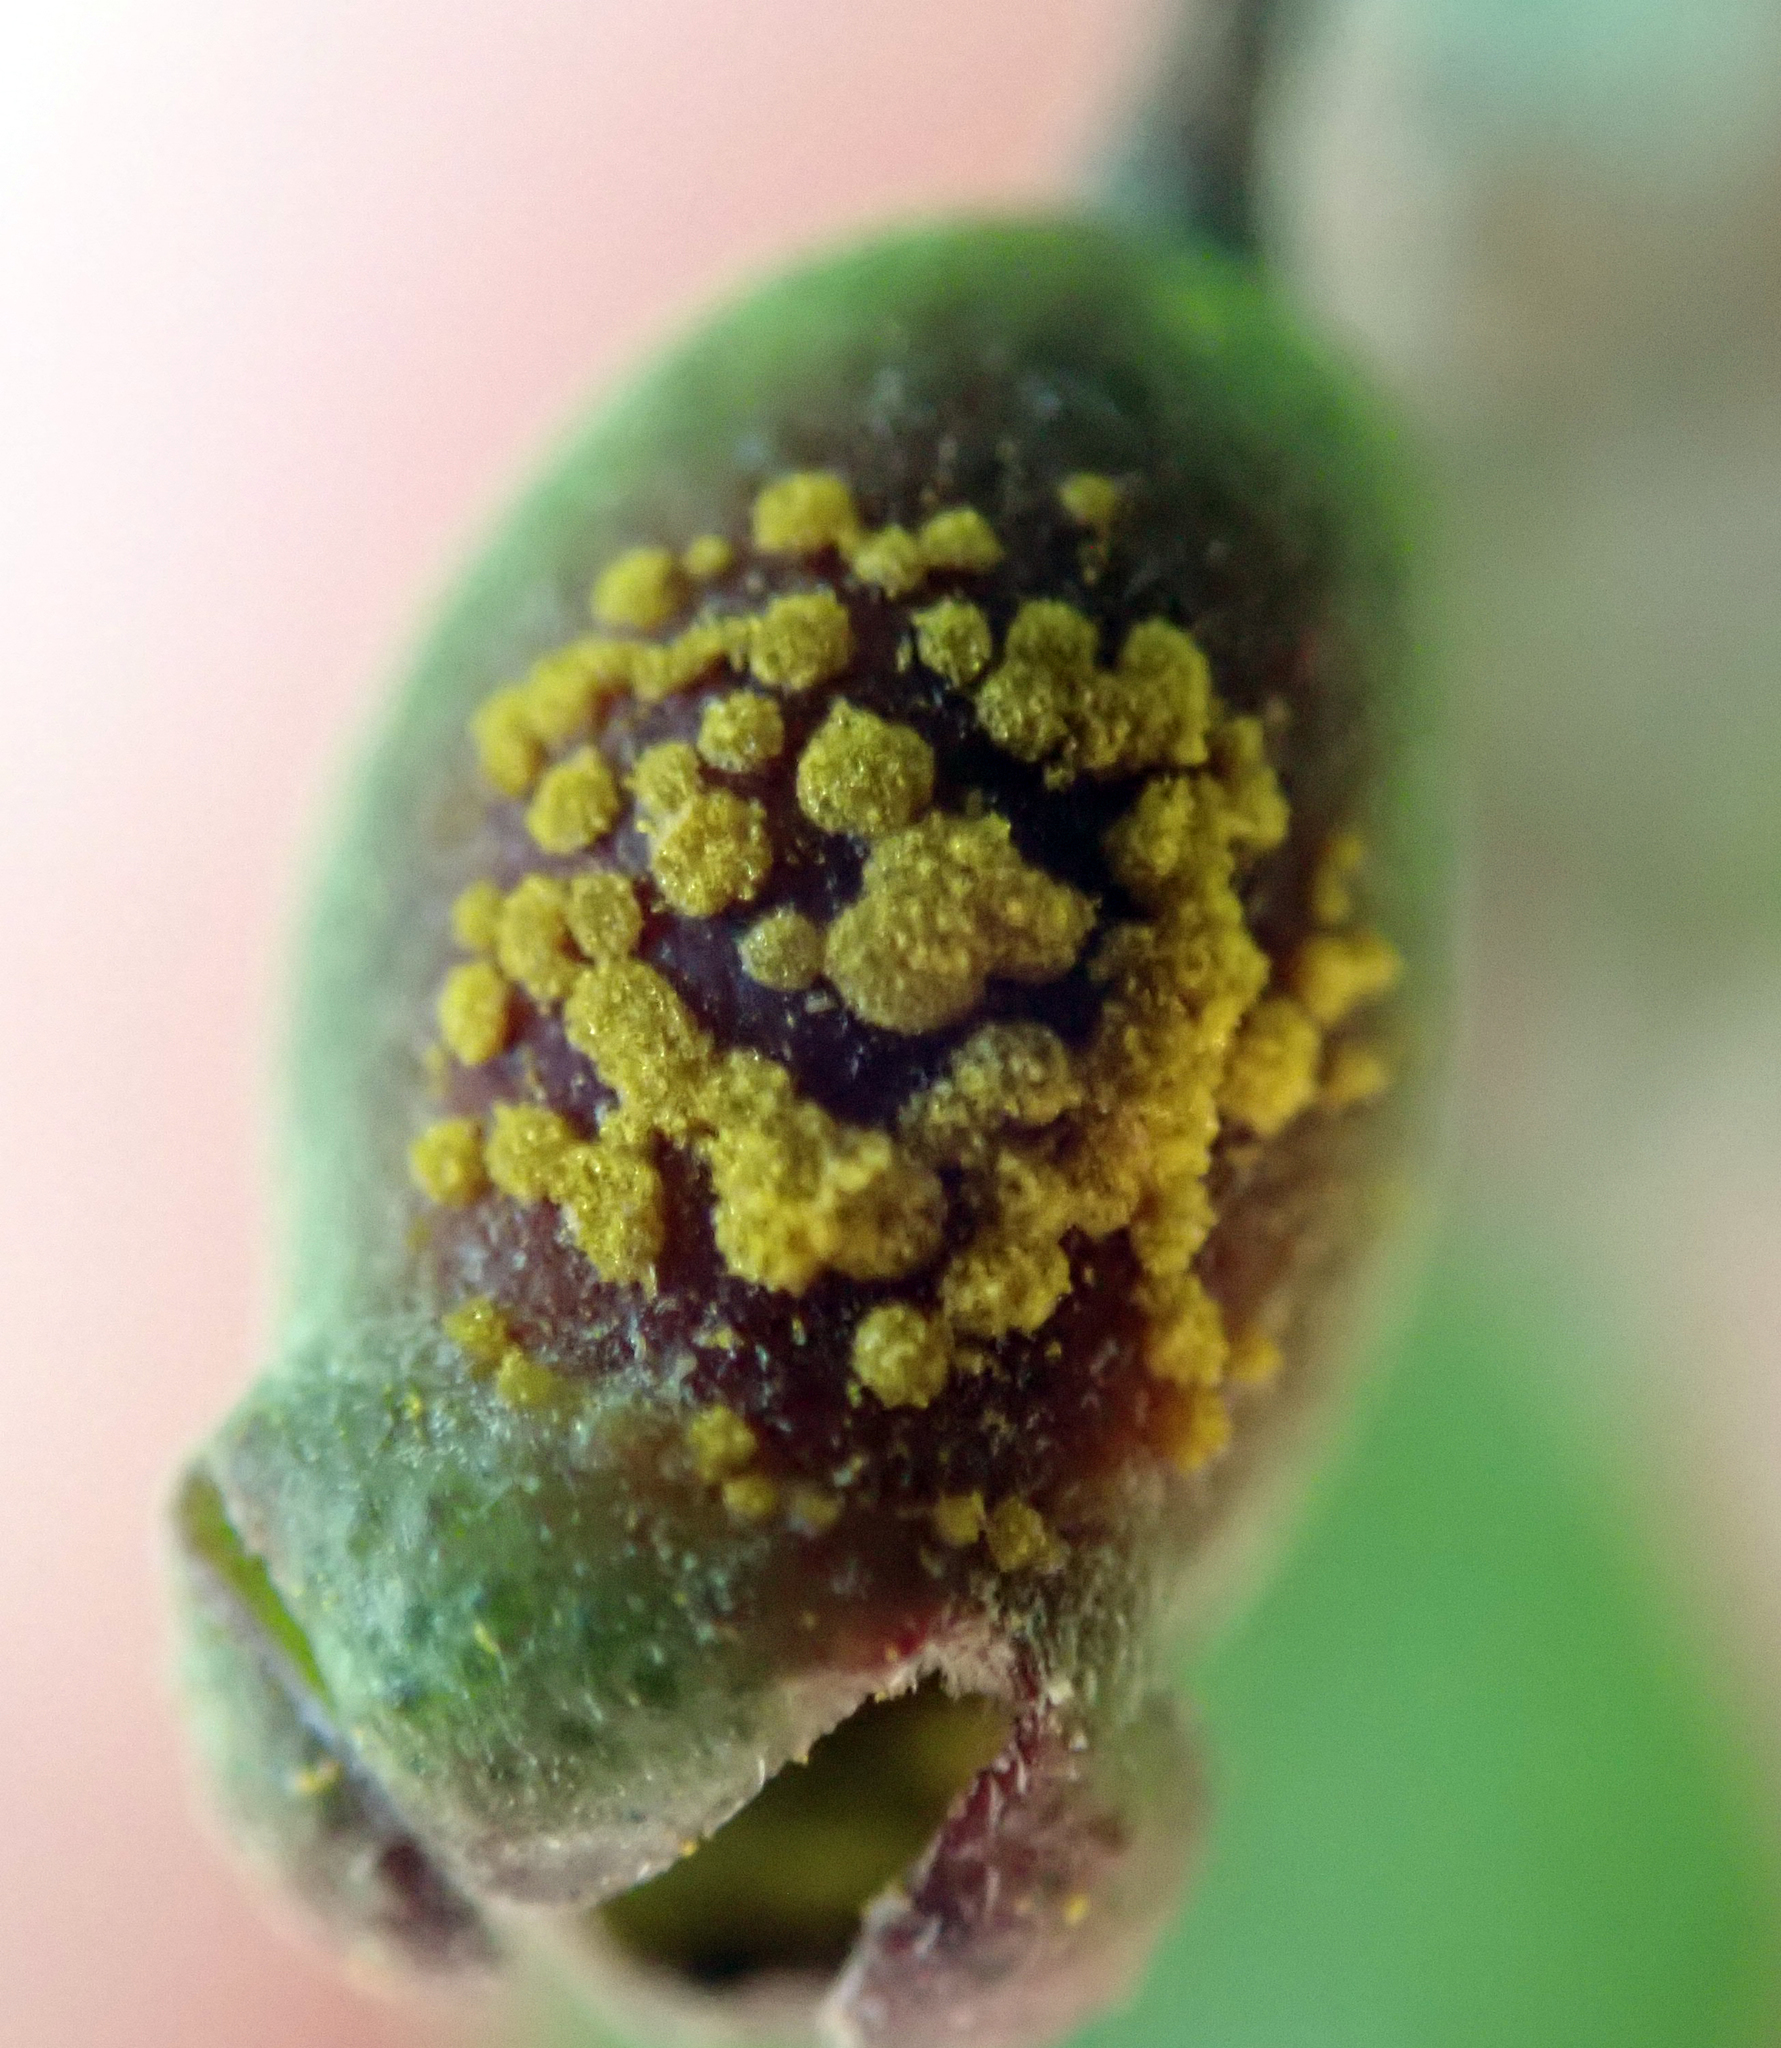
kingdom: Fungi
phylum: Basidiomycota
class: Pucciniomycetes
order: Pucciniales
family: Sphaerophragmiaceae
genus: Austropuccinia
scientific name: Austropuccinia psidii
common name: Myrtle rust
